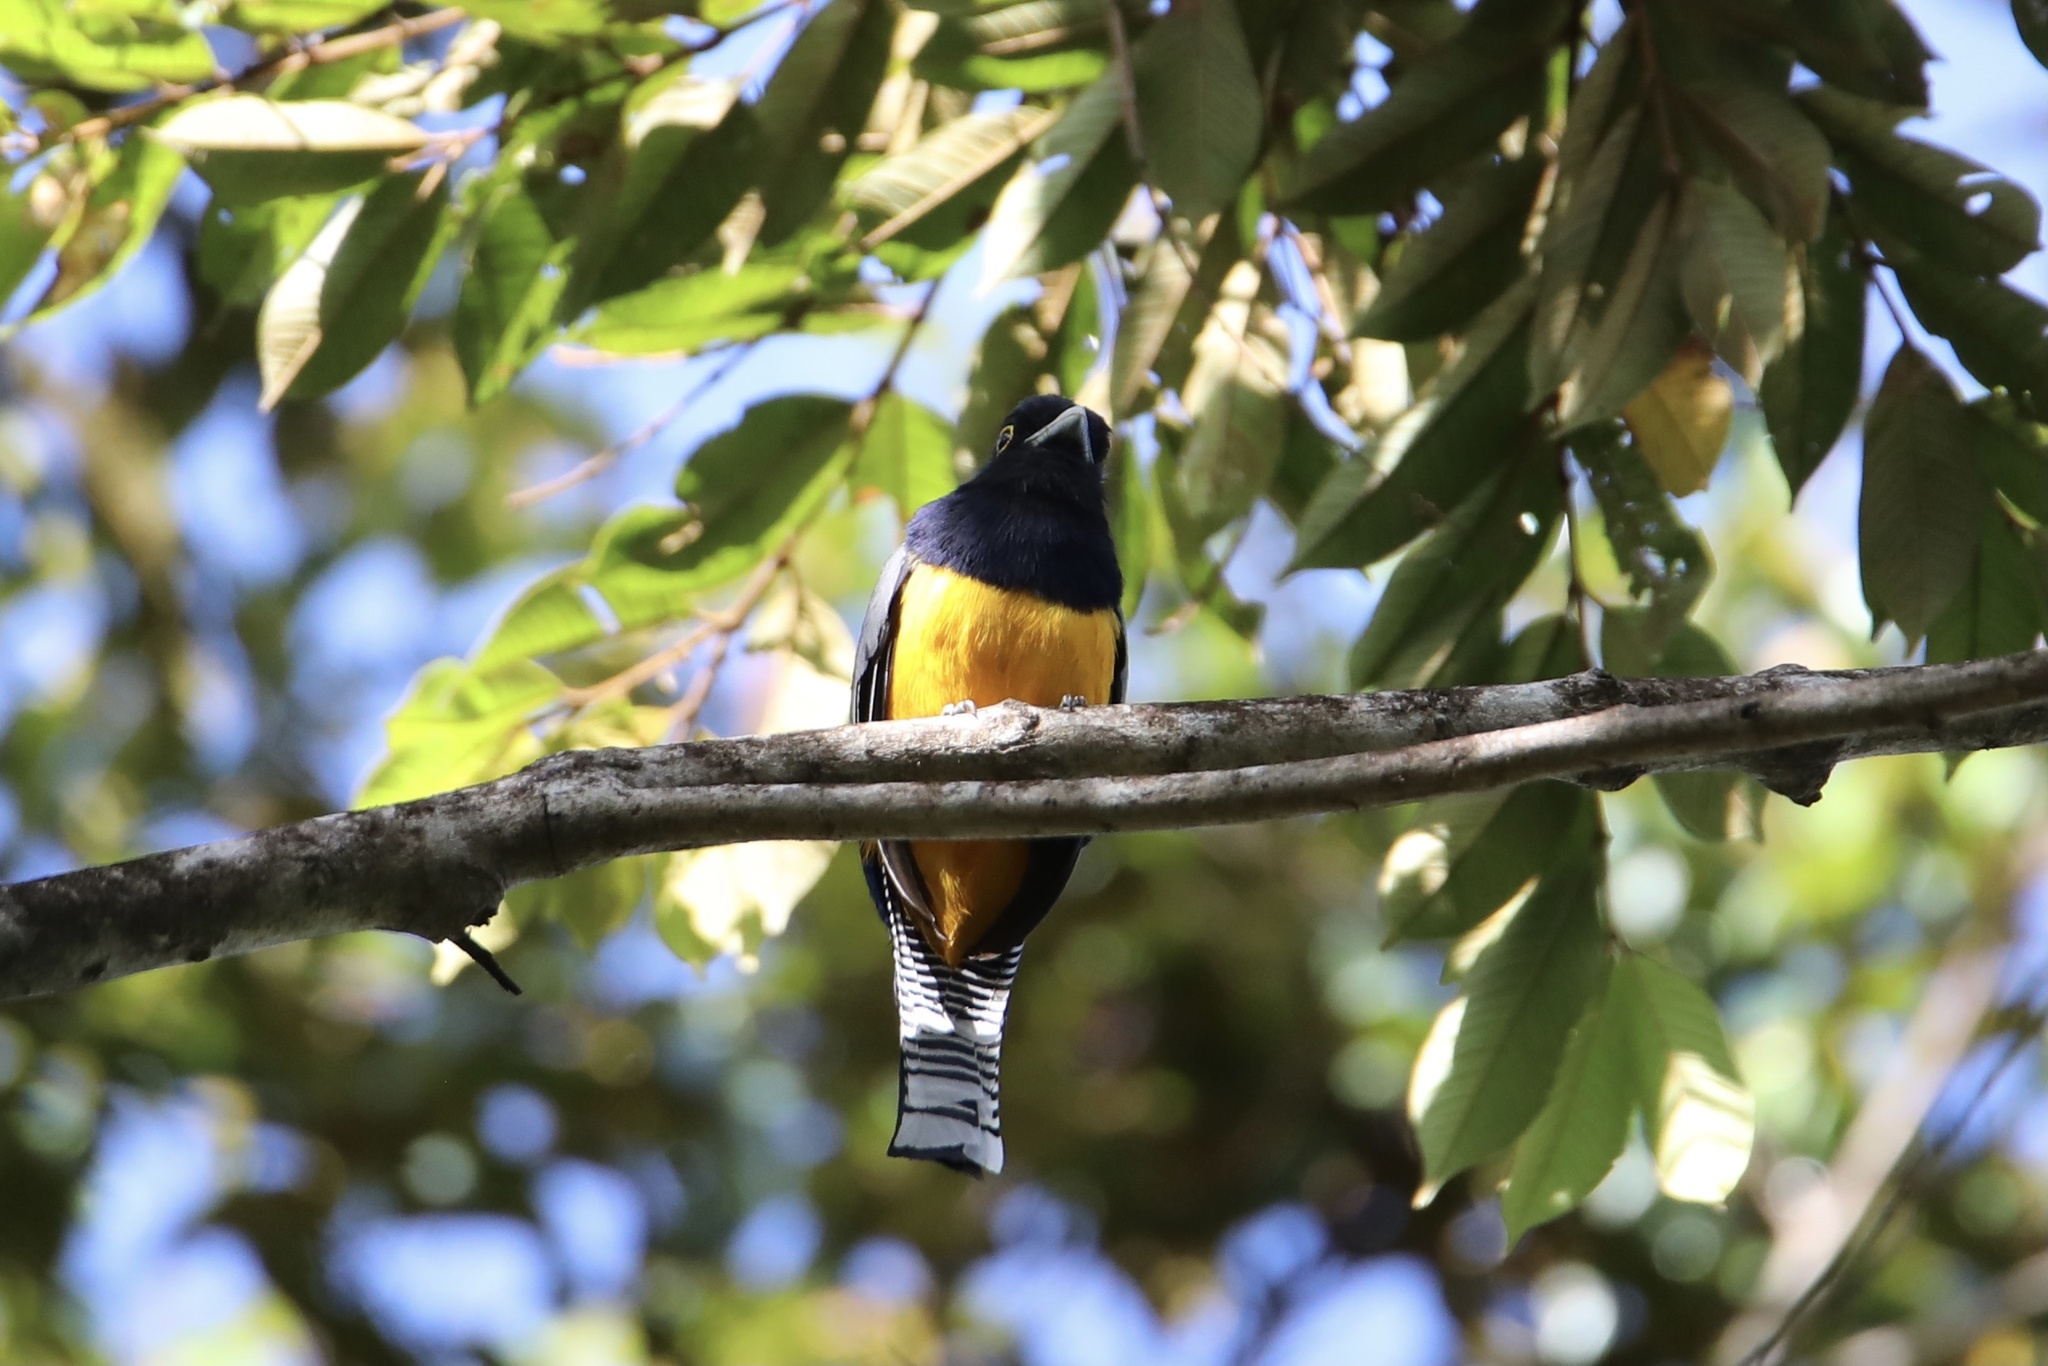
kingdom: Animalia
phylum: Chordata
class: Aves
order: Trogoniformes
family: Trogonidae
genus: Trogon
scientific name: Trogon caligatus
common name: Gartered trogon
